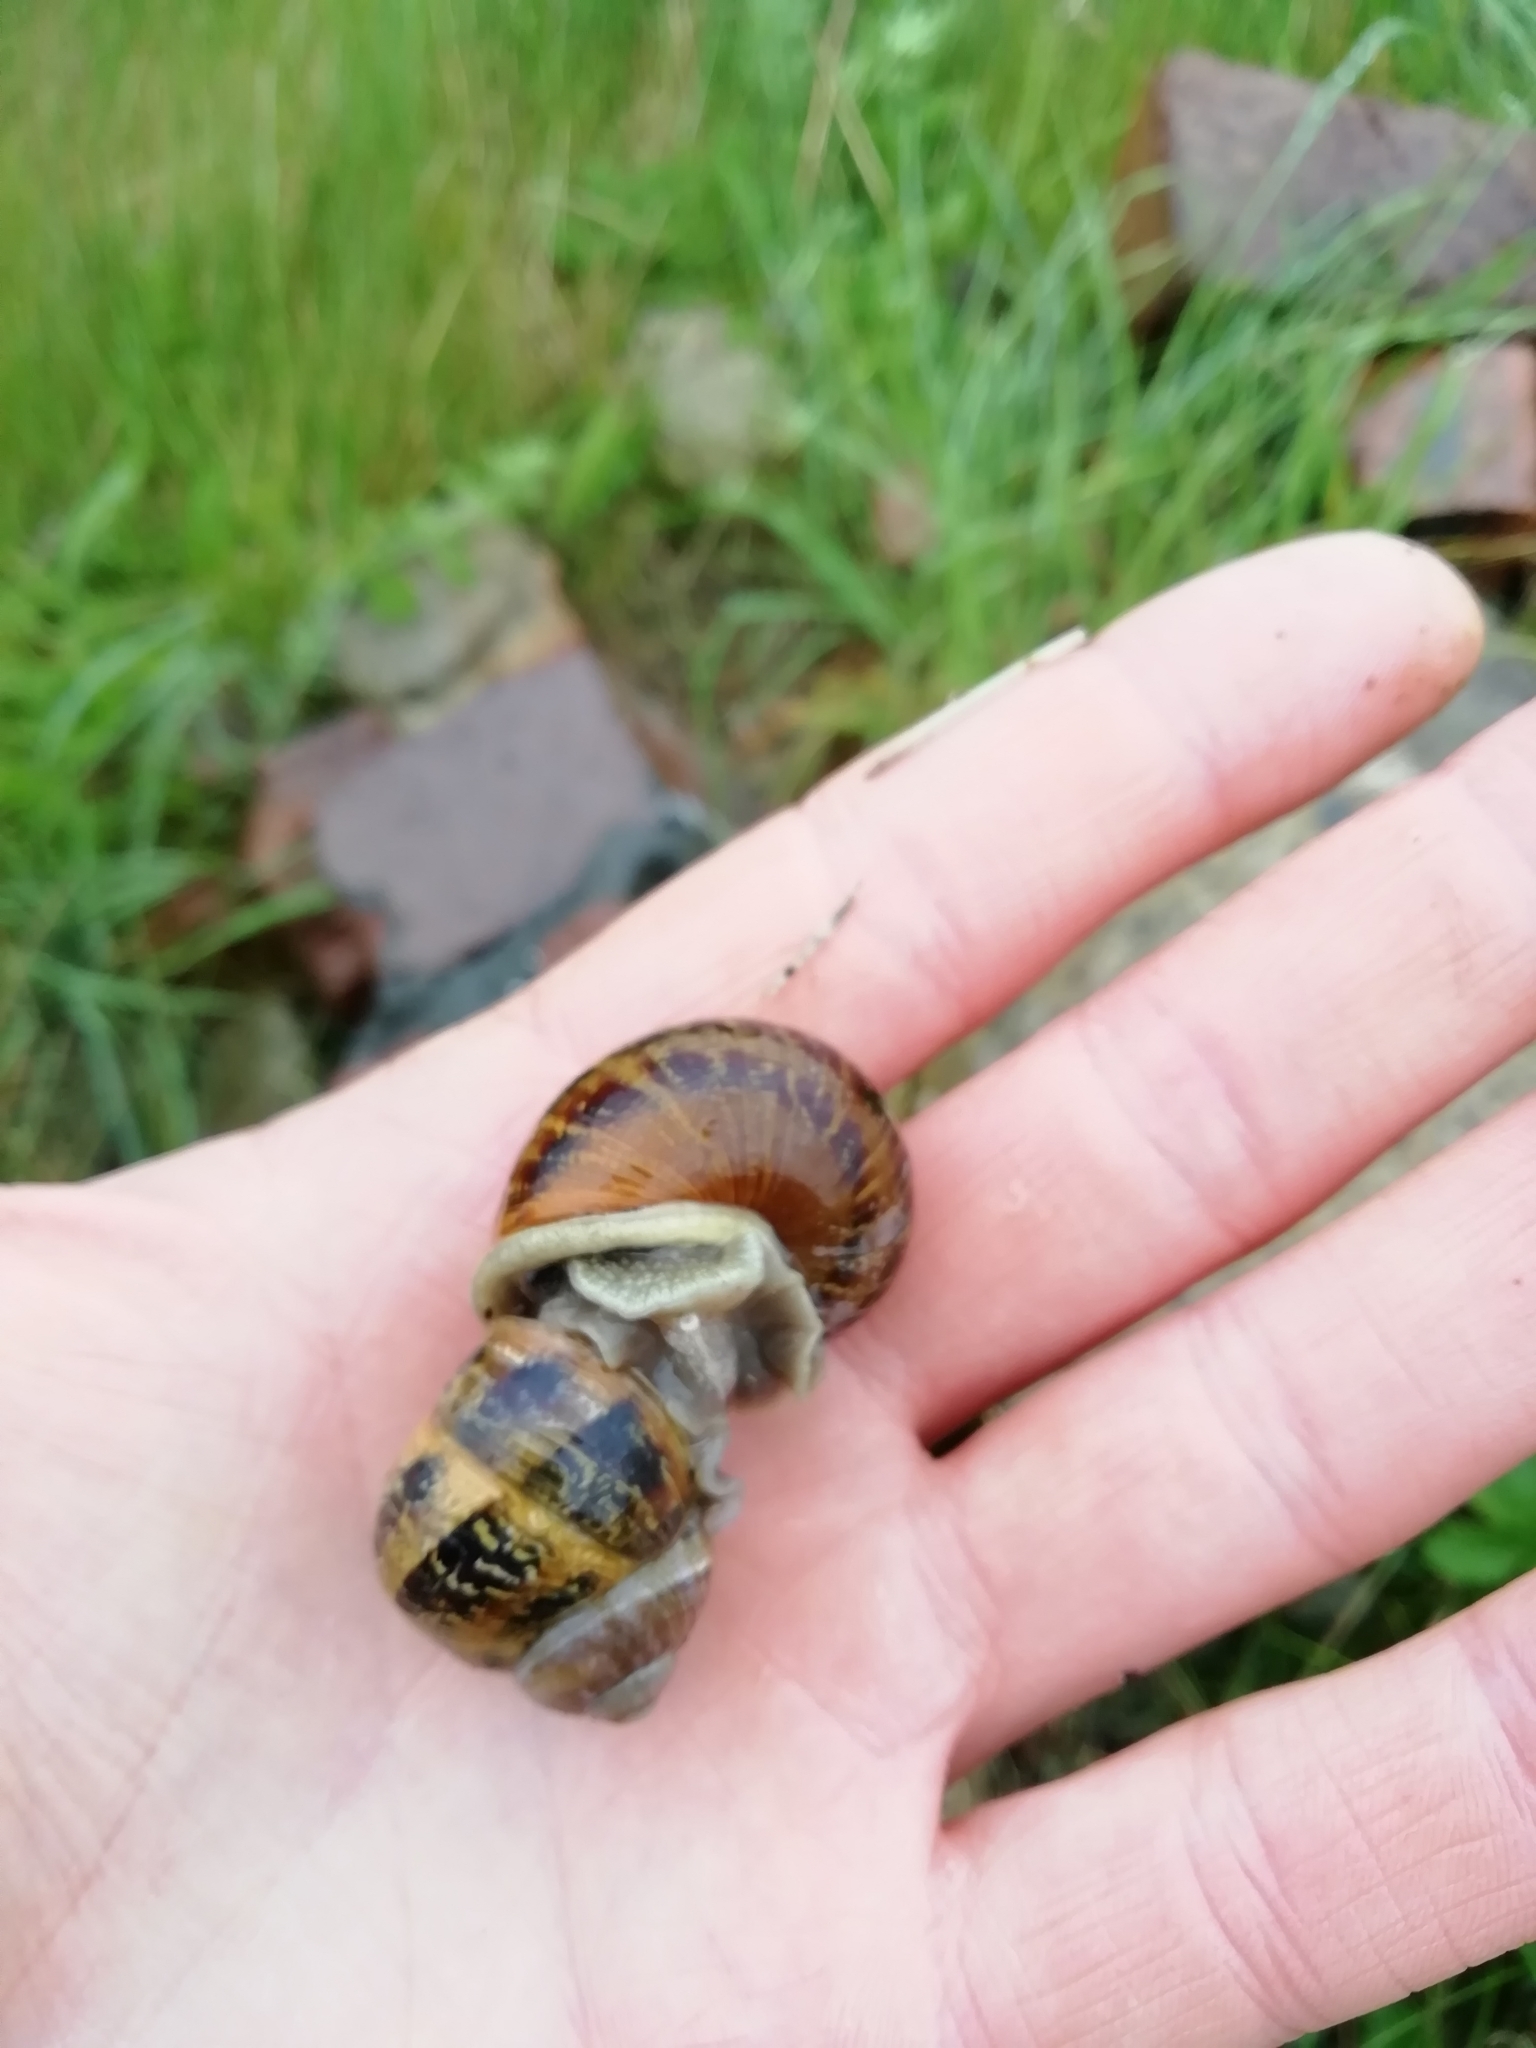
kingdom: Animalia
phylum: Mollusca
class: Gastropoda
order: Stylommatophora
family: Helicidae
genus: Cornu
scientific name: Cornu aspersum
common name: Brown garden snail
